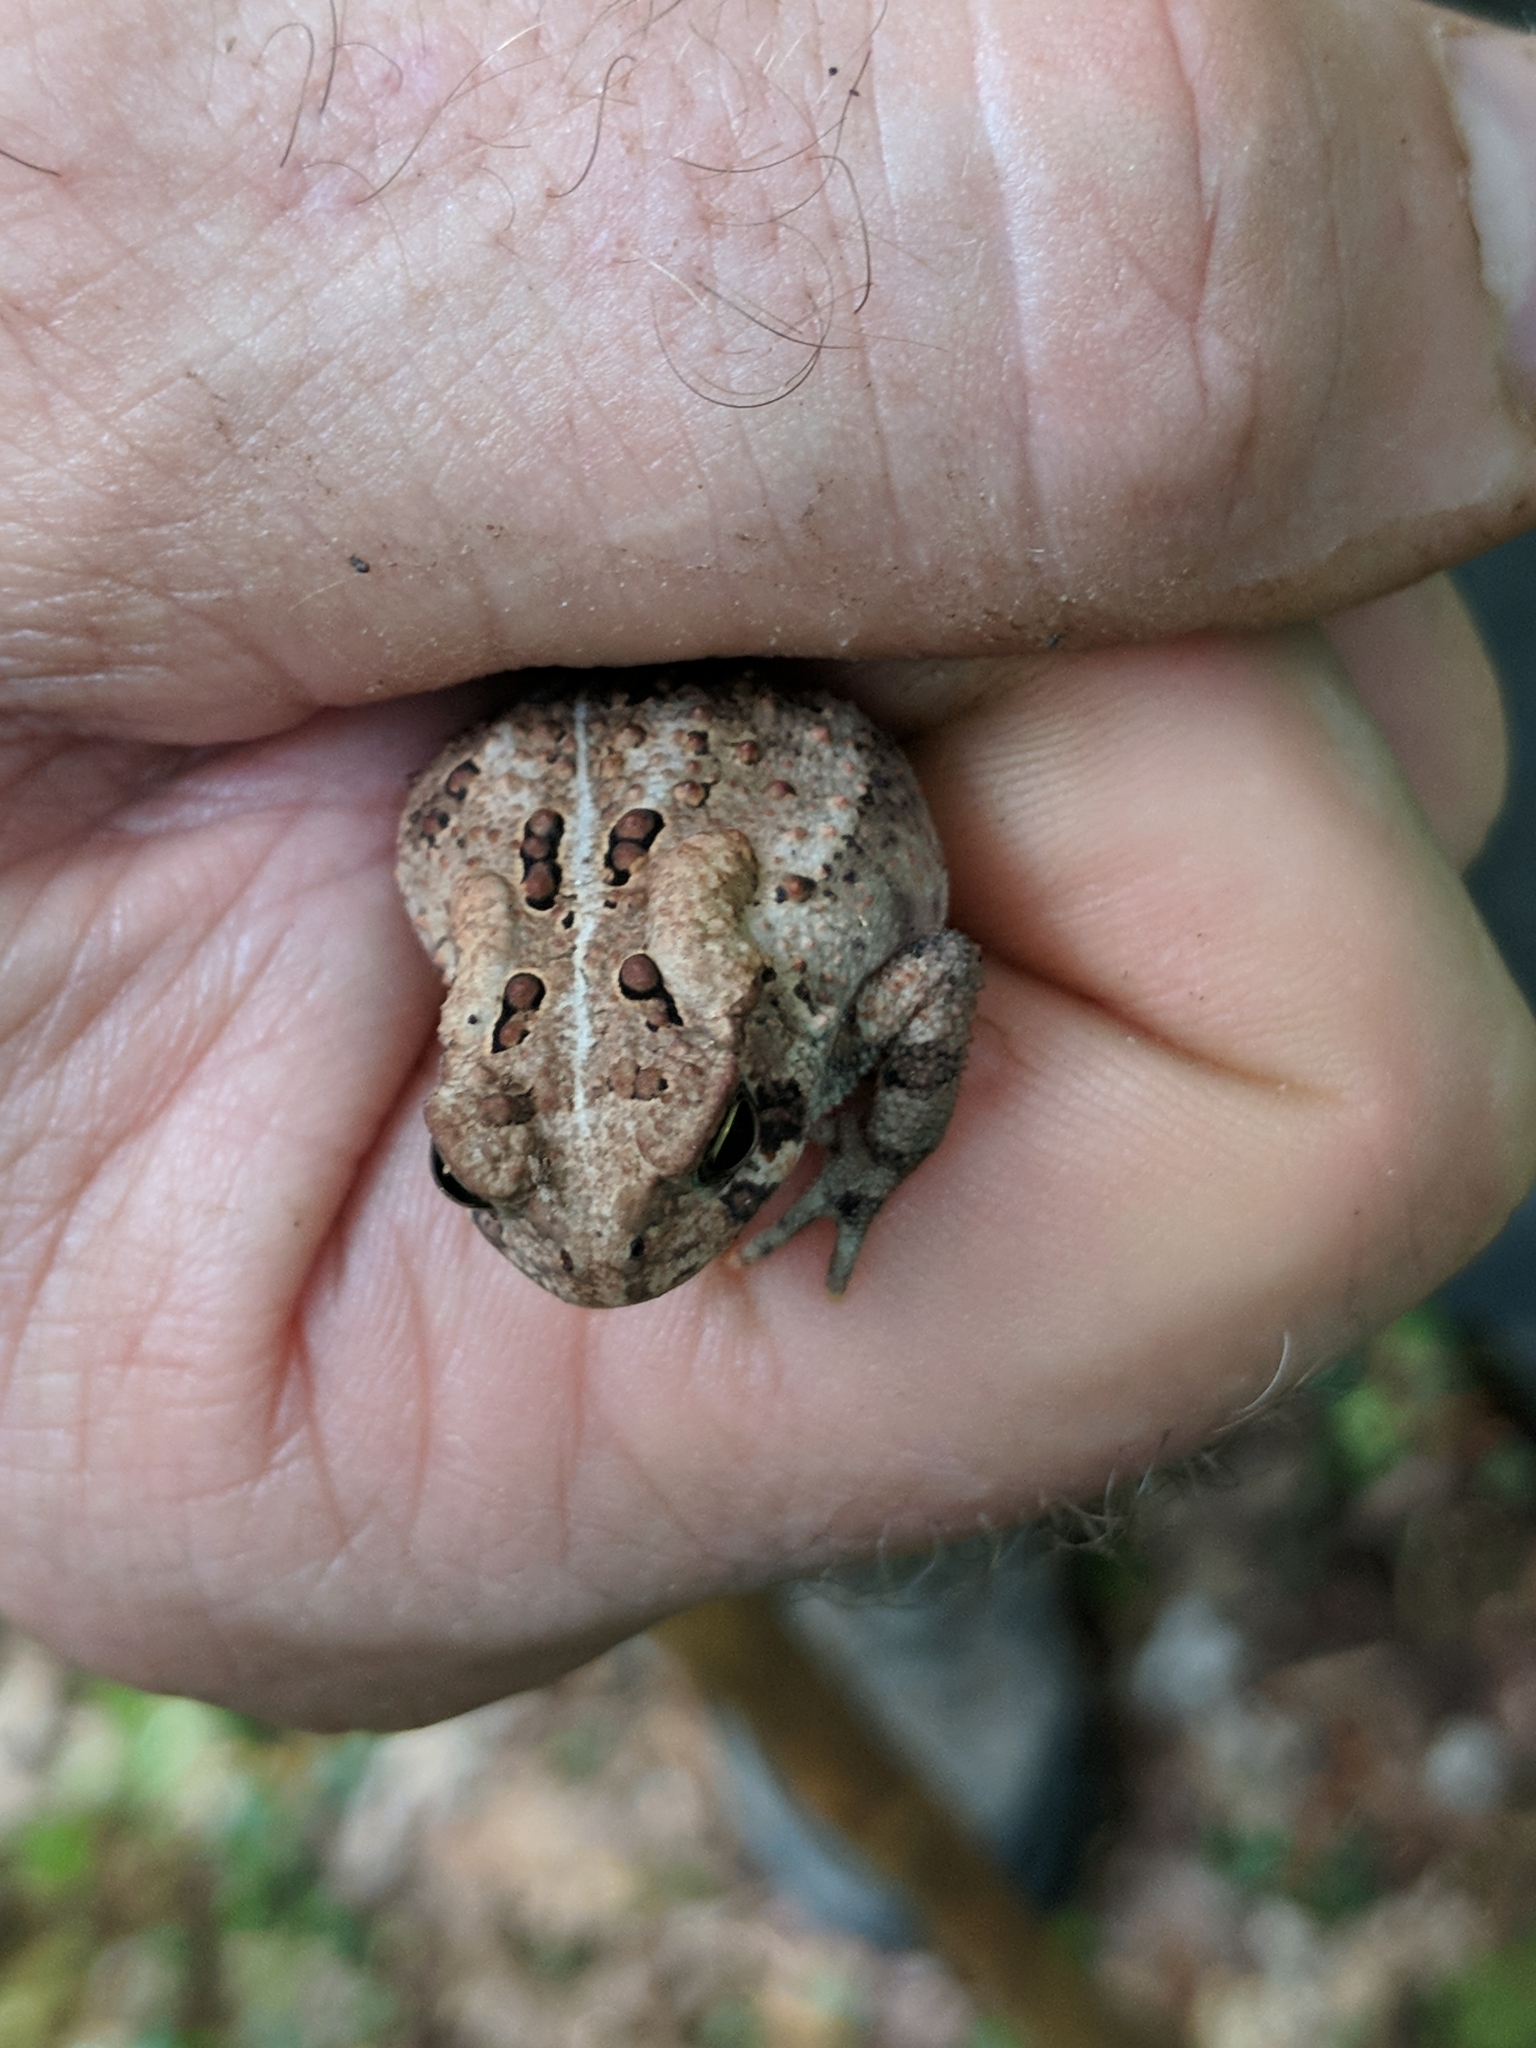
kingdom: Animalia
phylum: Chordata
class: Amphibia
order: Anura
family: Bufonidae
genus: Anaxyrus
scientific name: Anaxyrus americanus
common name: American toad
